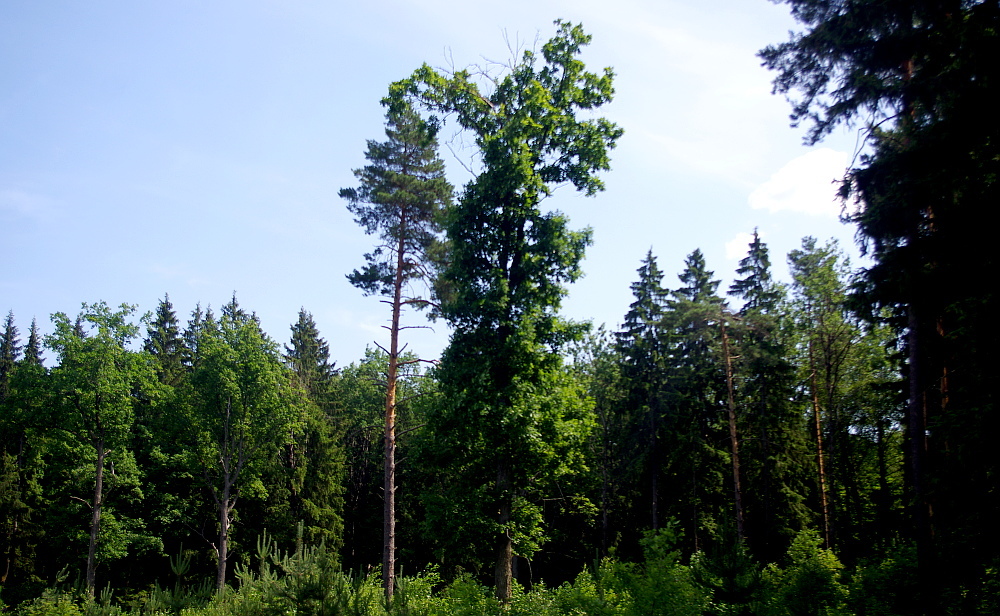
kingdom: Plantae
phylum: Tracheophyta
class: Magnoliopsida
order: Fagales
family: Fagaceae
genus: Quercus
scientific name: Quercus robur
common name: Pedunculate oak
